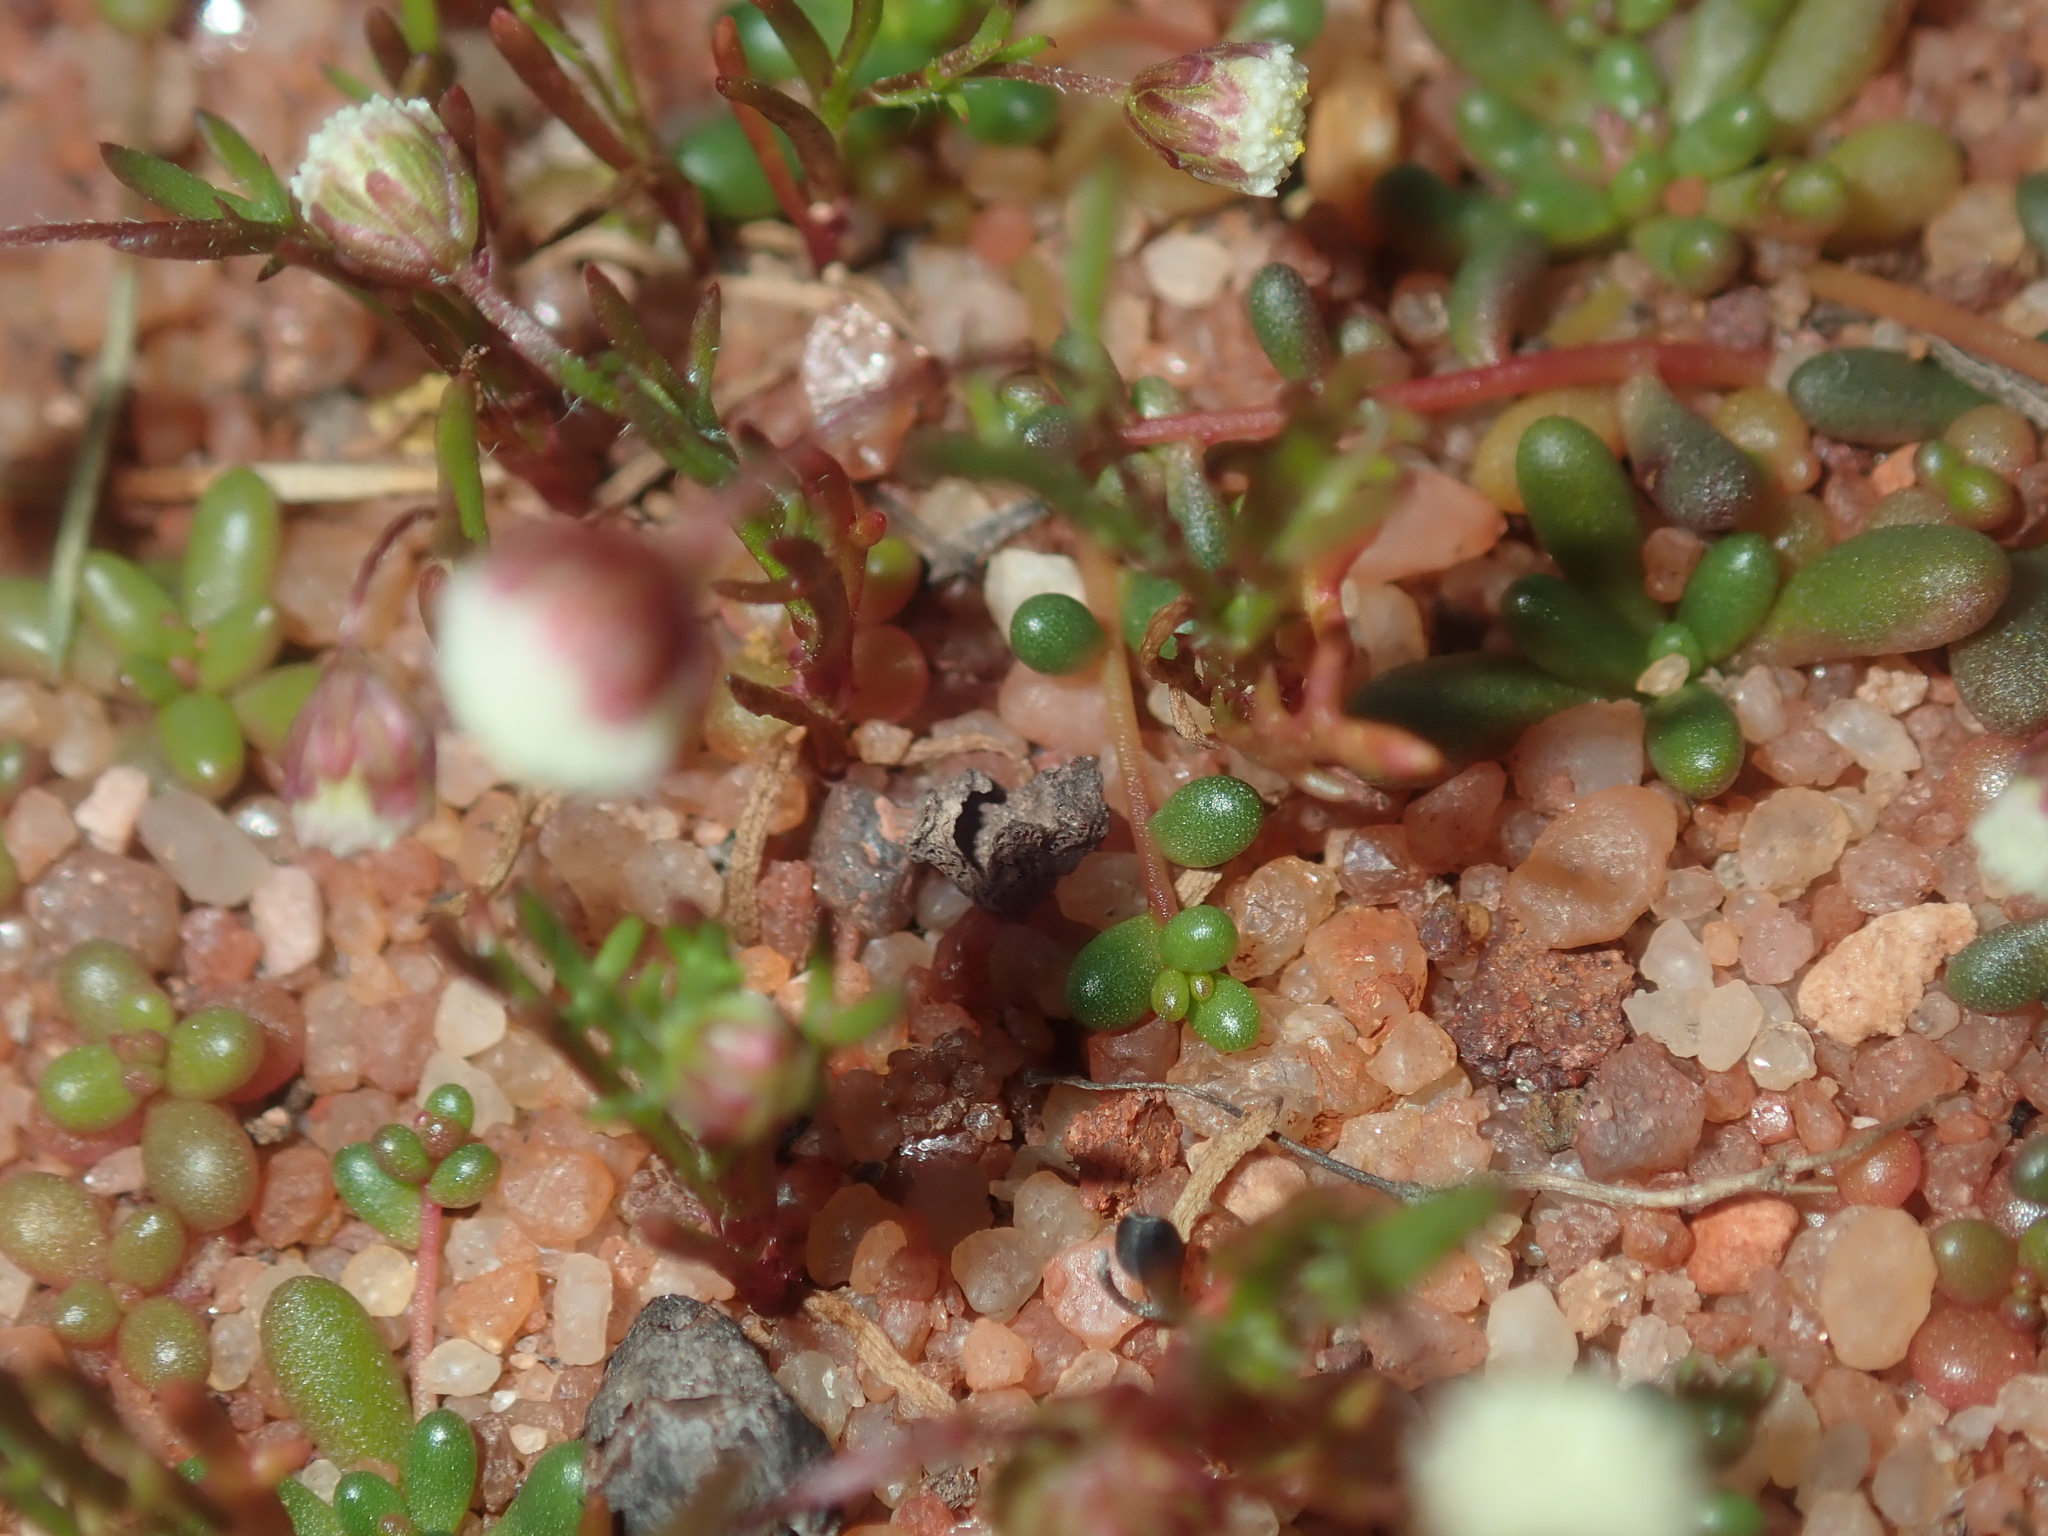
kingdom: Plantae
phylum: Tracheophyta
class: Magnoliopsida
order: Asterales
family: Asteraceae
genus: Cotula
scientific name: Cotula bipinnata
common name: Ferny buttonweed
